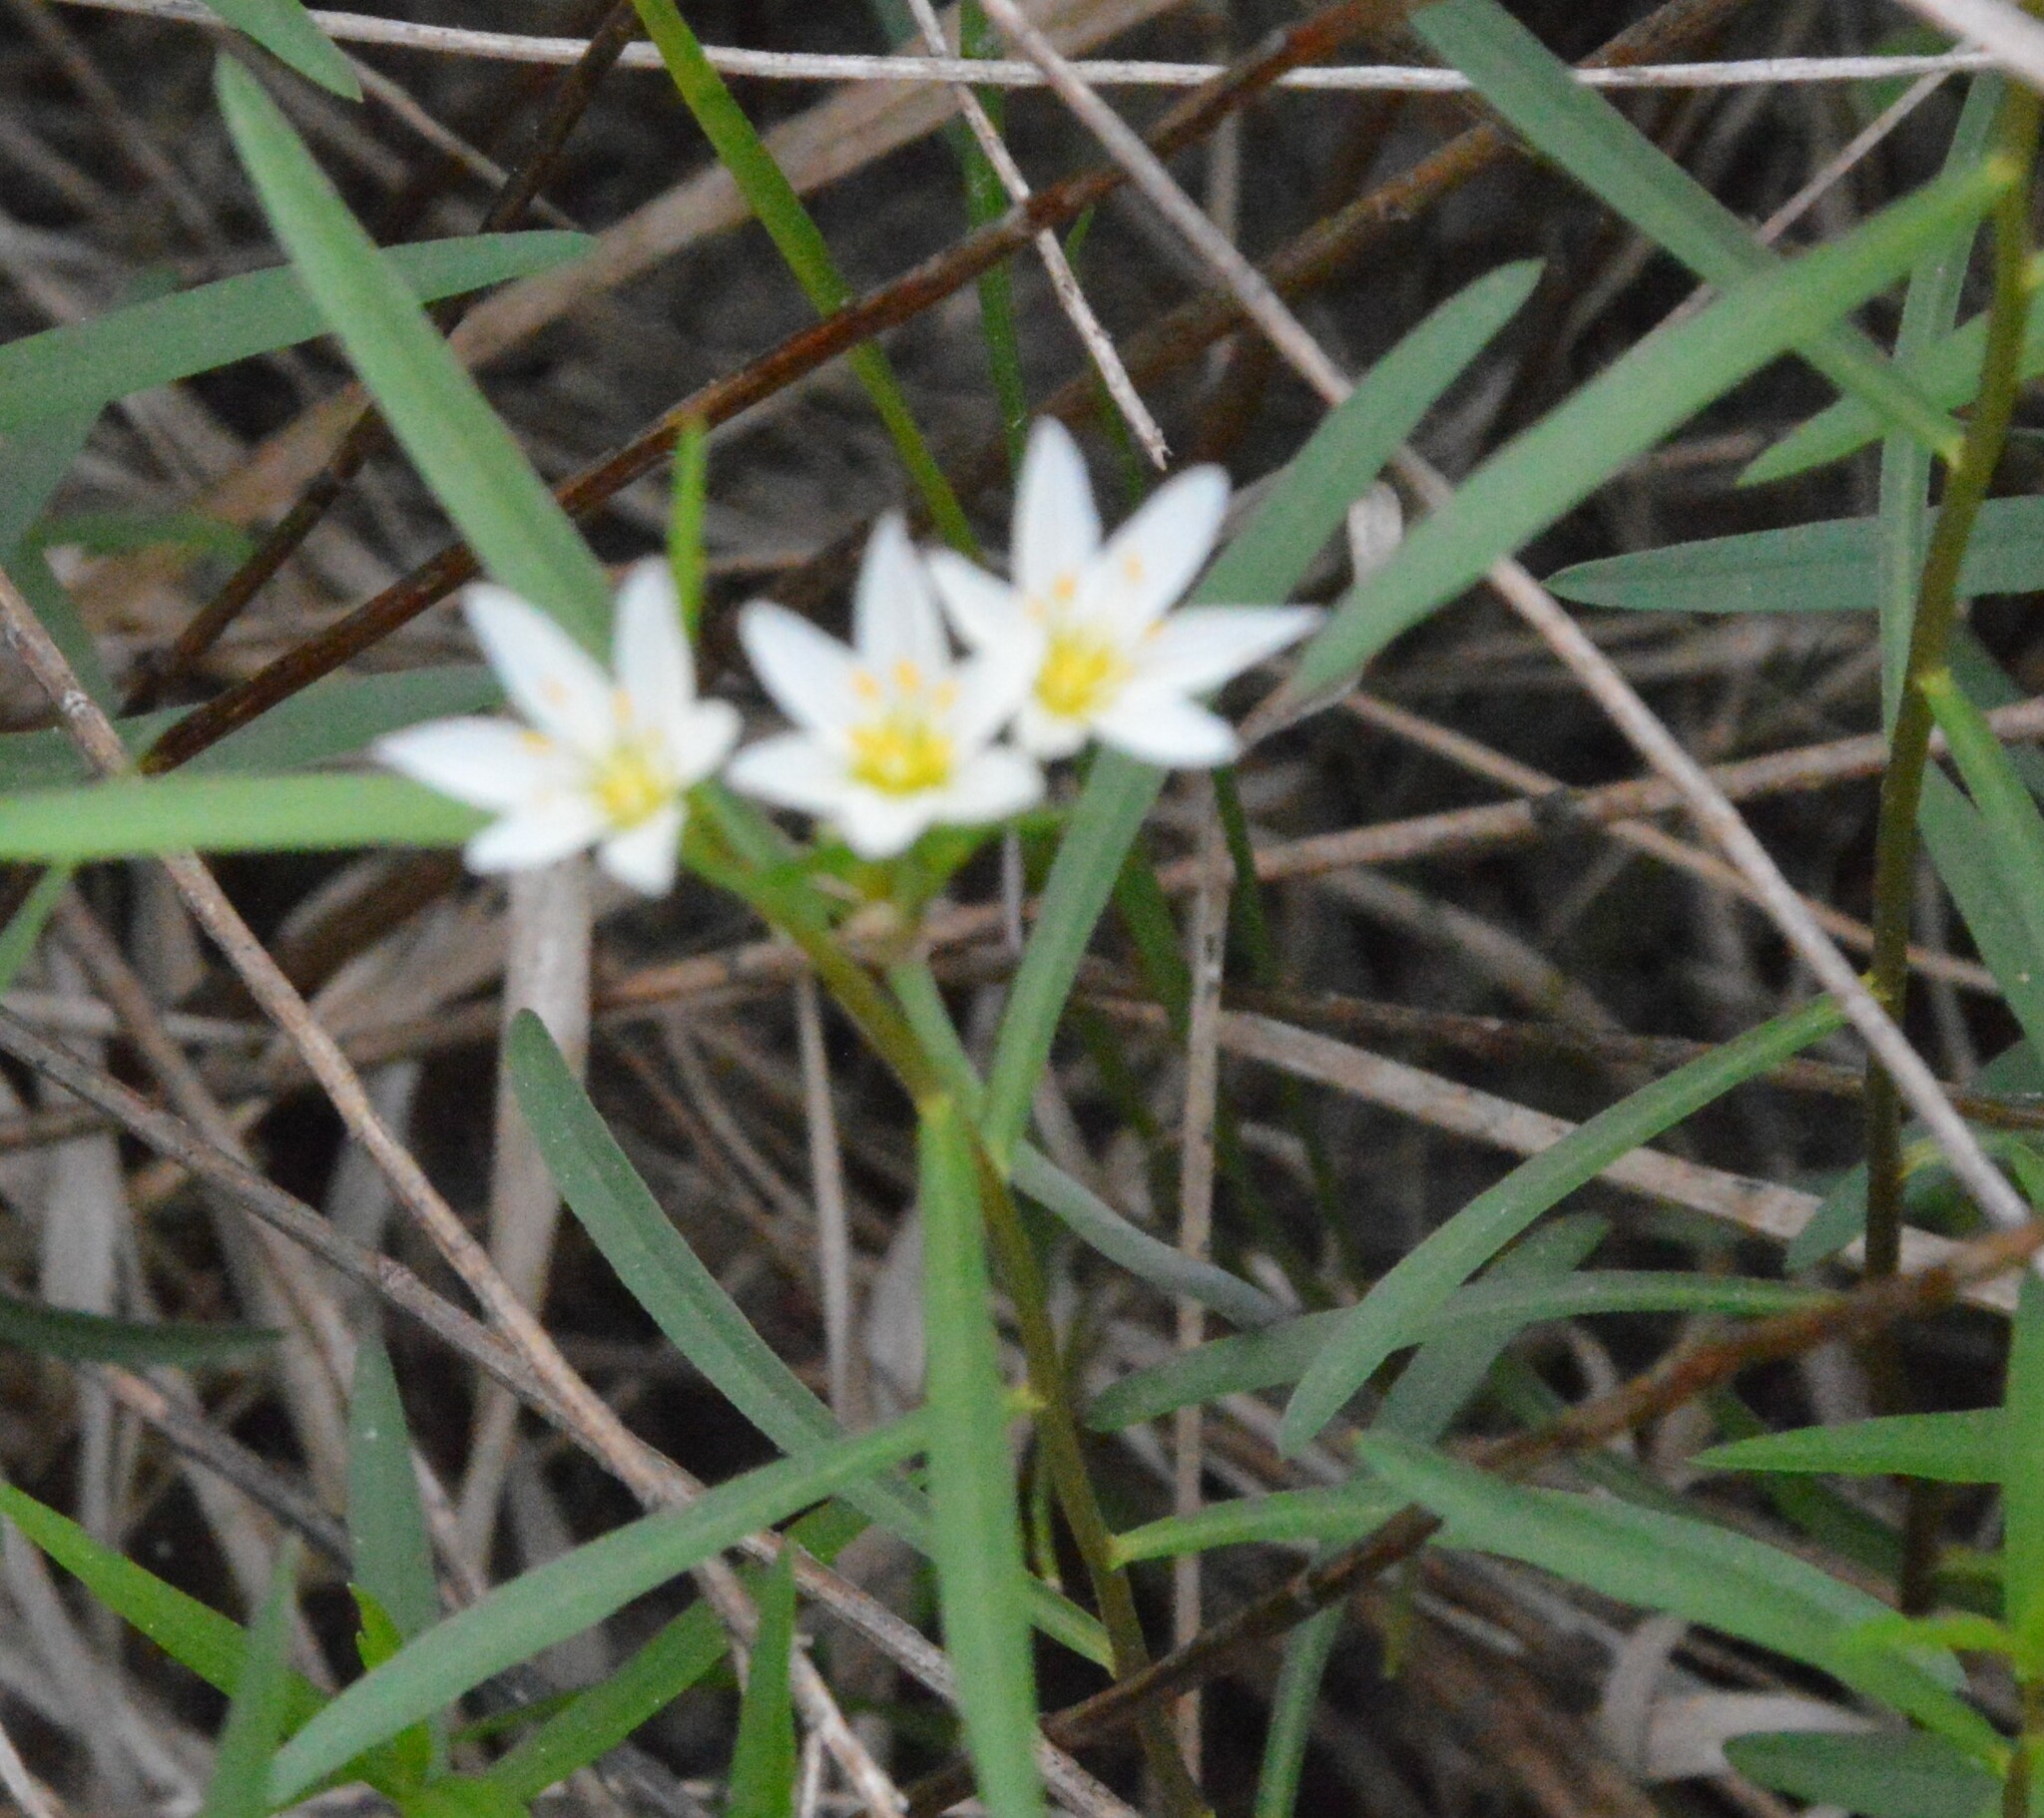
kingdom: Plantae
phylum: Tracheophyta
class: Liliopsida
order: Asparagales
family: Amaryllidaceae
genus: Nothoscordum
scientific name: Nothoscordum bivalve
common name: Crow-poison
